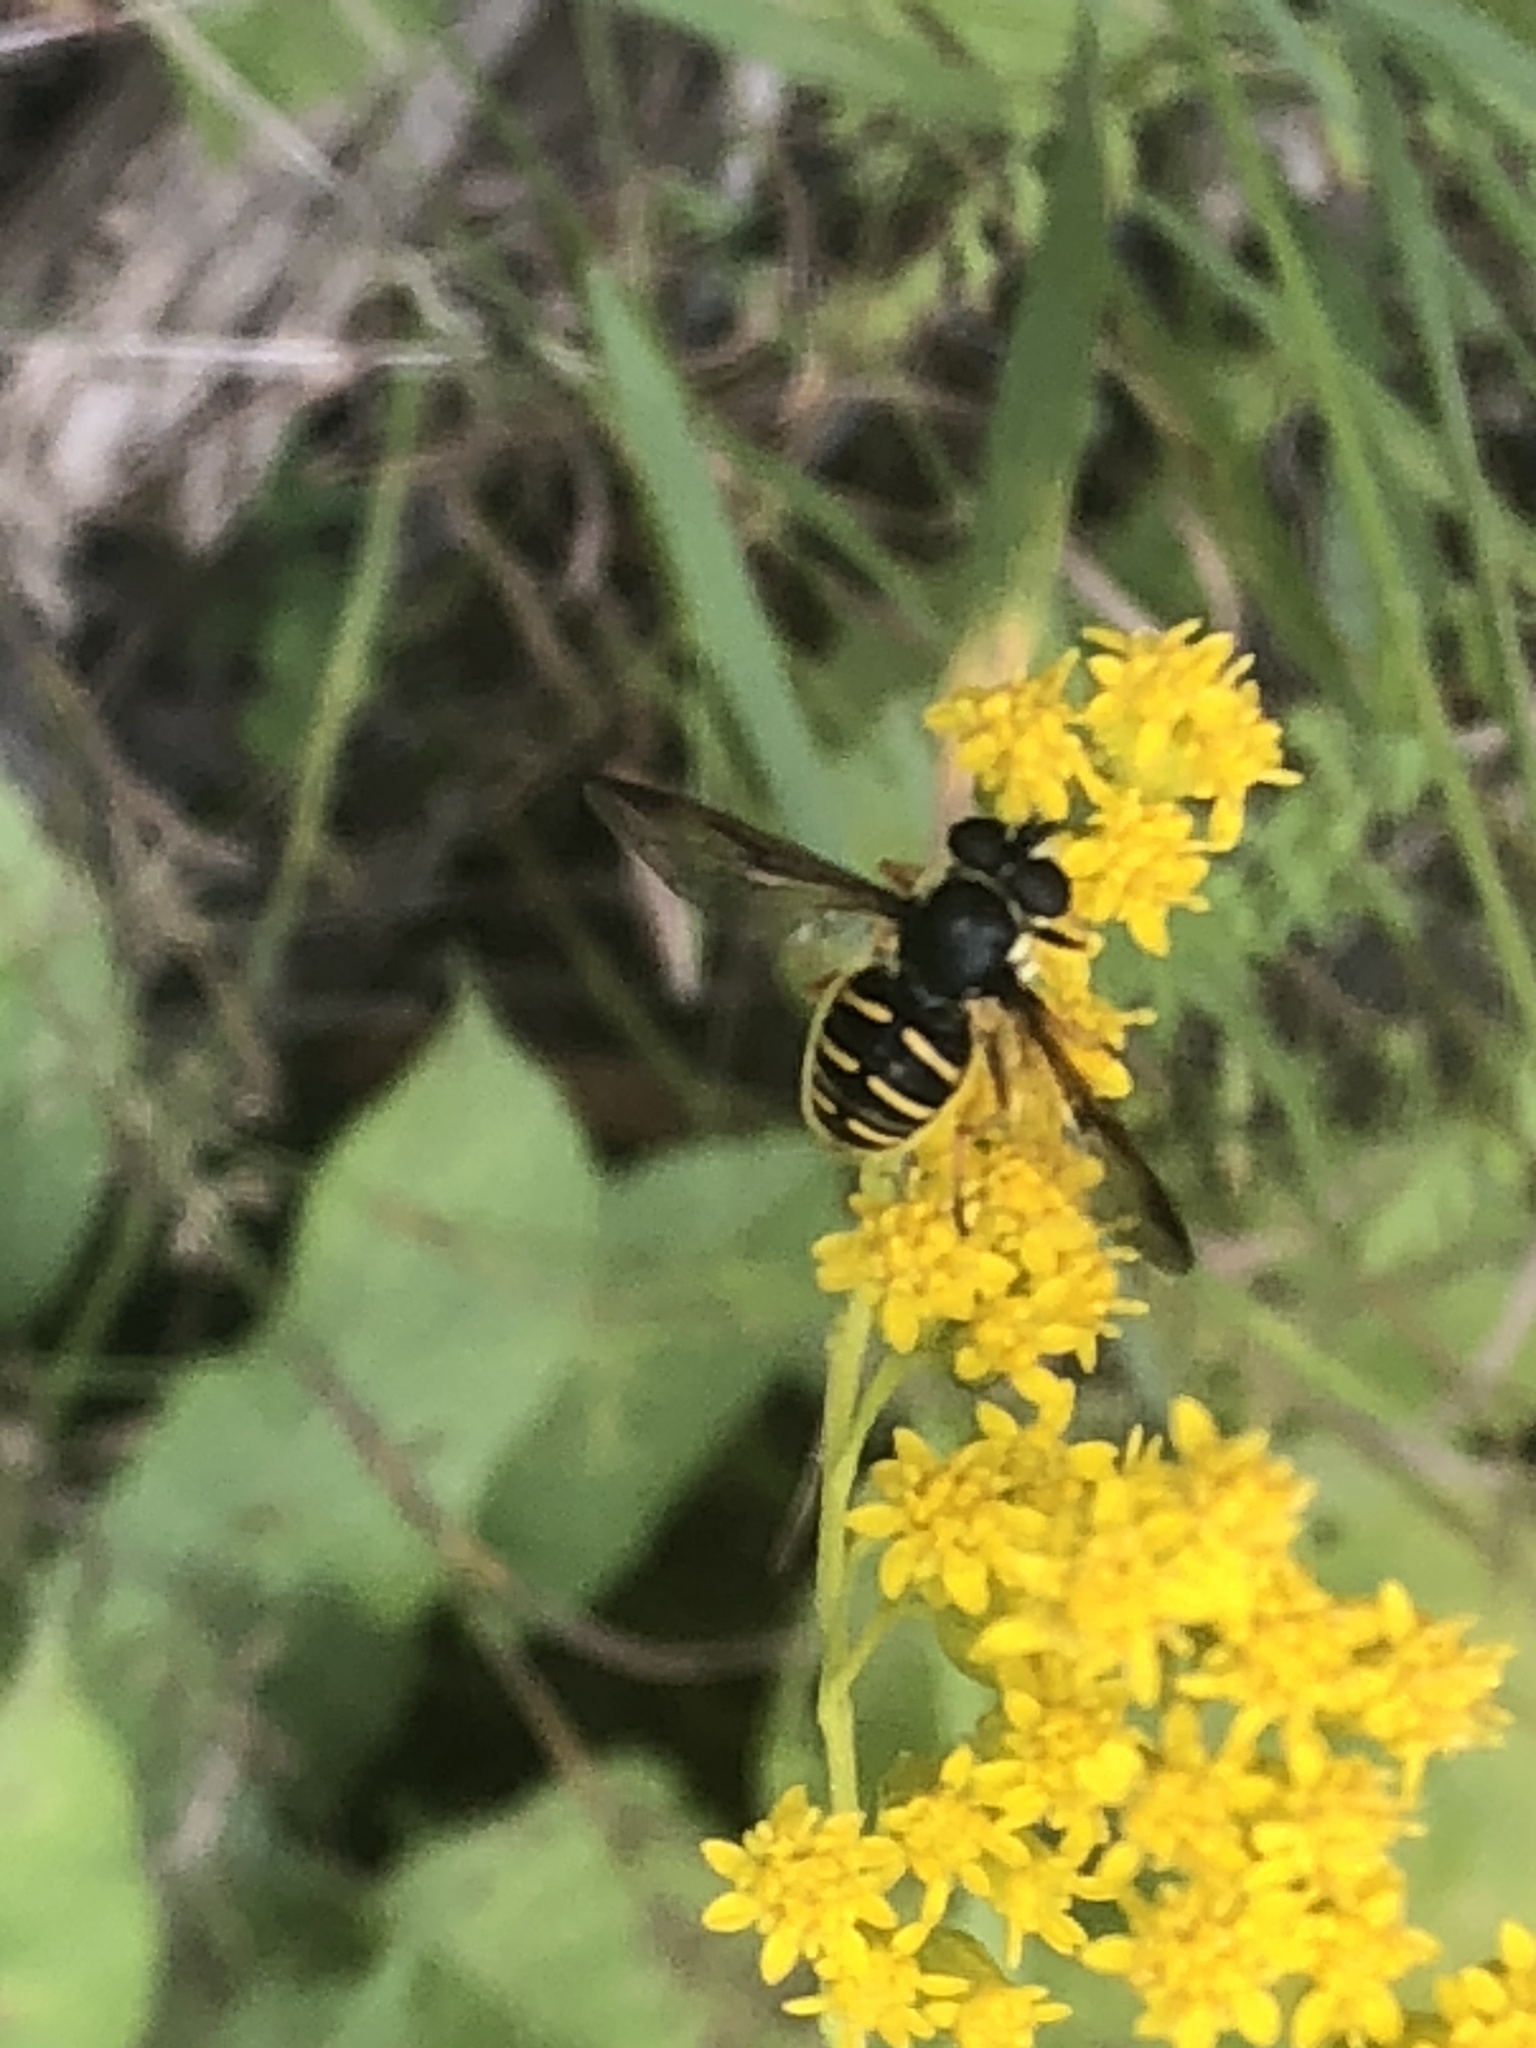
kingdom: Animalia
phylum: Arthropoda
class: Insecta
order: Diptera
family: Syrphidae
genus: Sericomyia
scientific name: Sericomyia chrysotoxoides
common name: Oblique-banded pond fly
